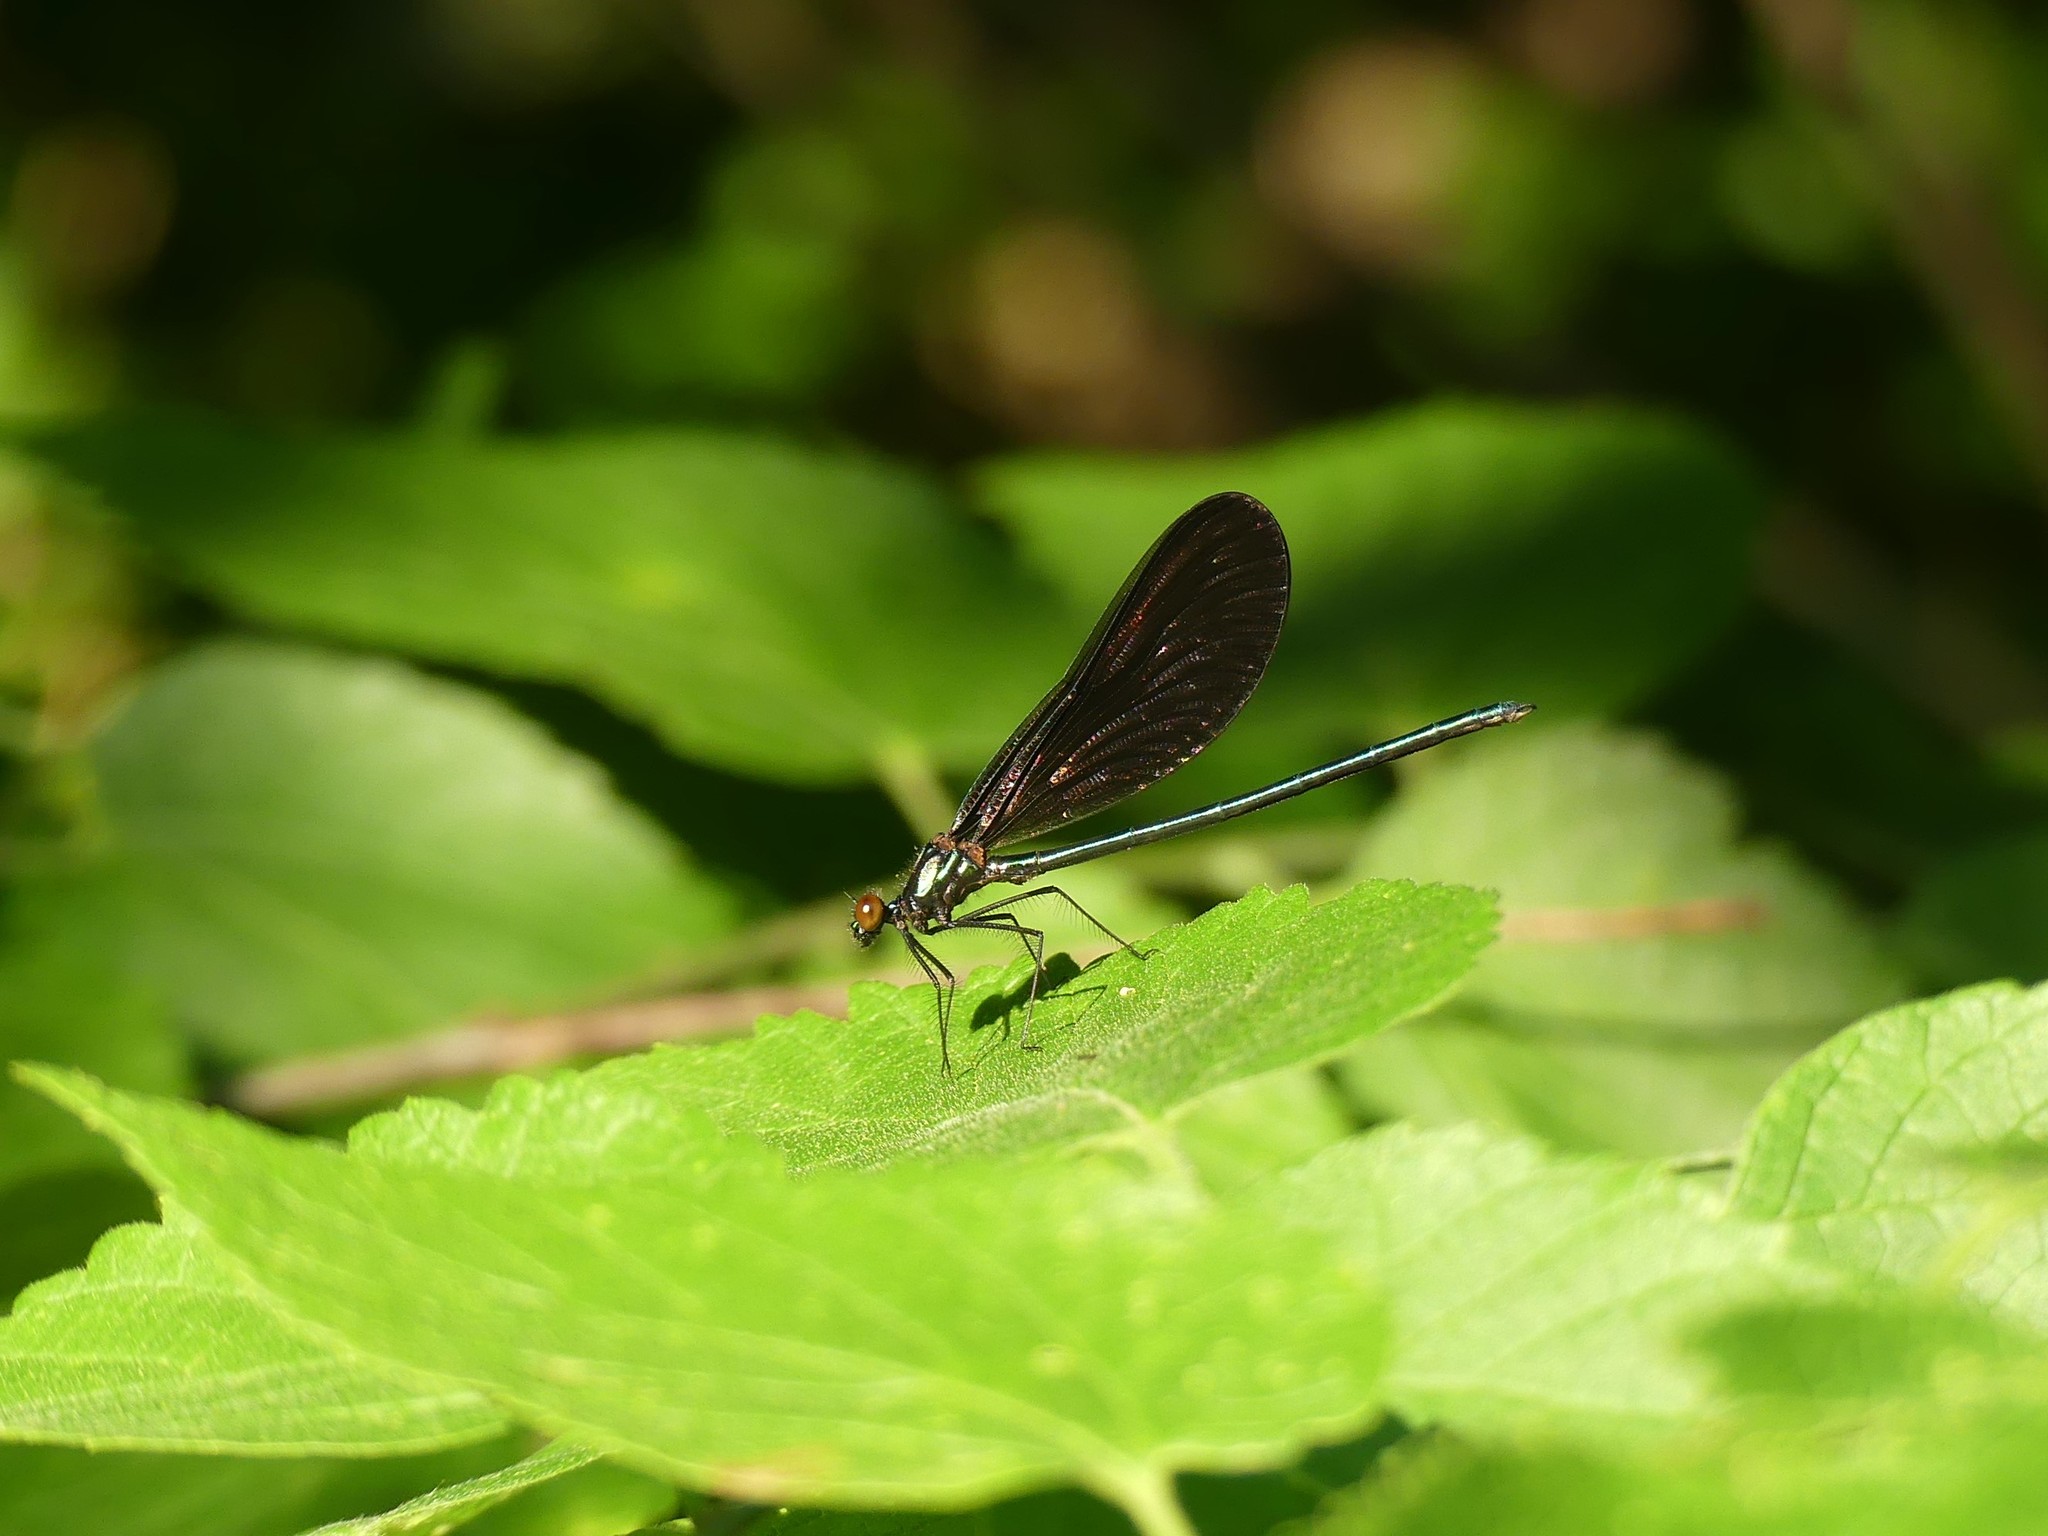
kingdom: Animalia
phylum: Arthropoda
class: Insecta
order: Odonata
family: Calopterygidae
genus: Calopteryx
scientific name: Calopteryx maculata
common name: Ebony jewelwing
